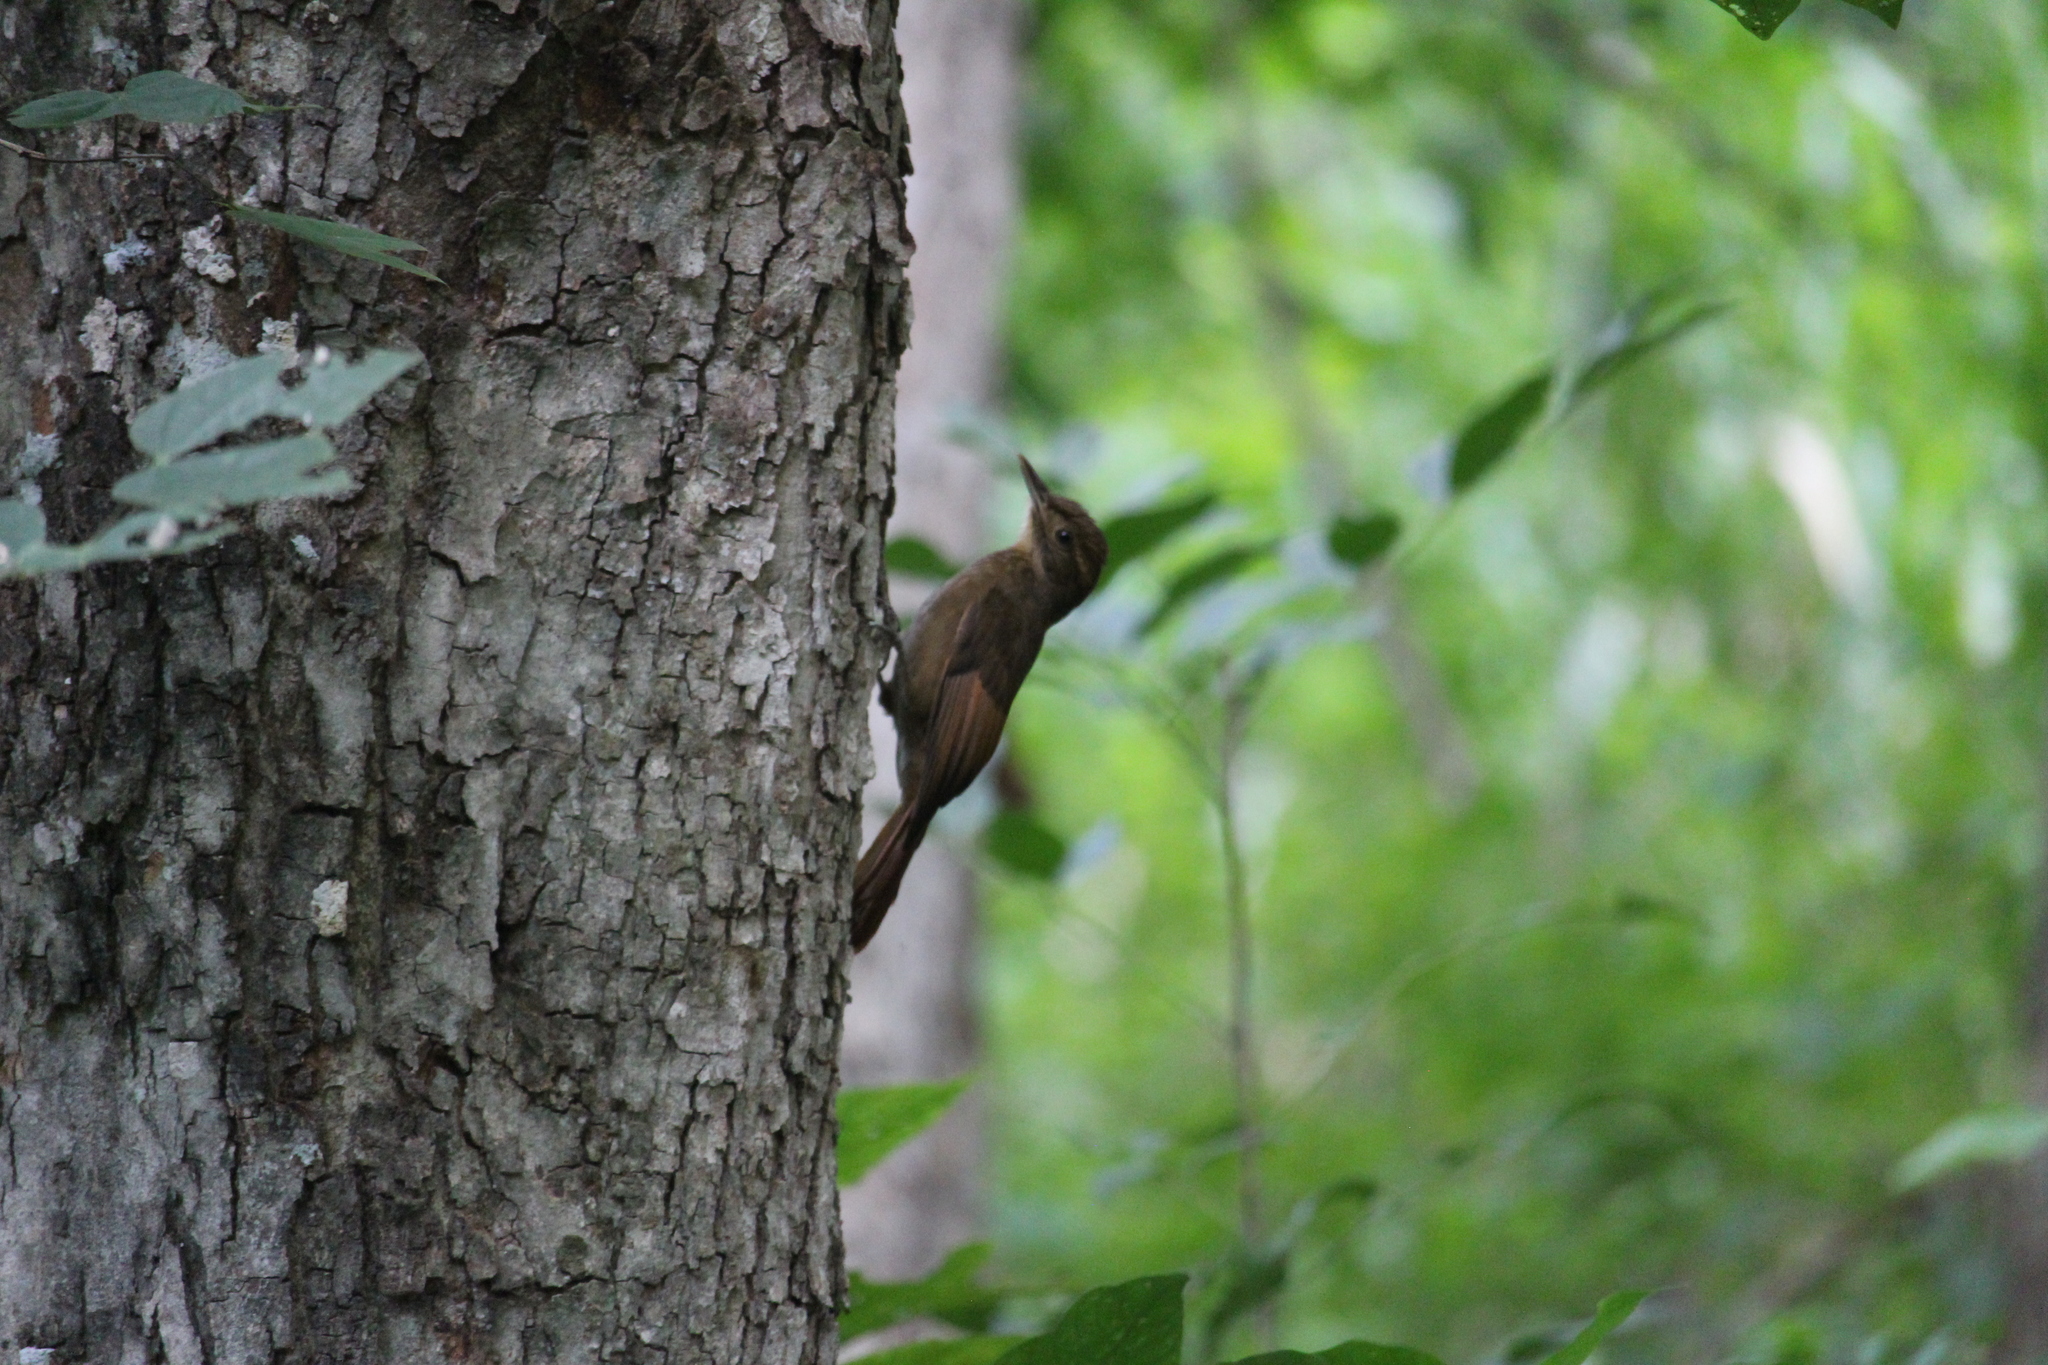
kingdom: Animalia
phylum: Chordata
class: Aves
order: Passeriformes
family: Furnariidae
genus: Dendrocincla
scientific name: Dendrocincla anabatina
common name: Tawny-winged woodcreeper
